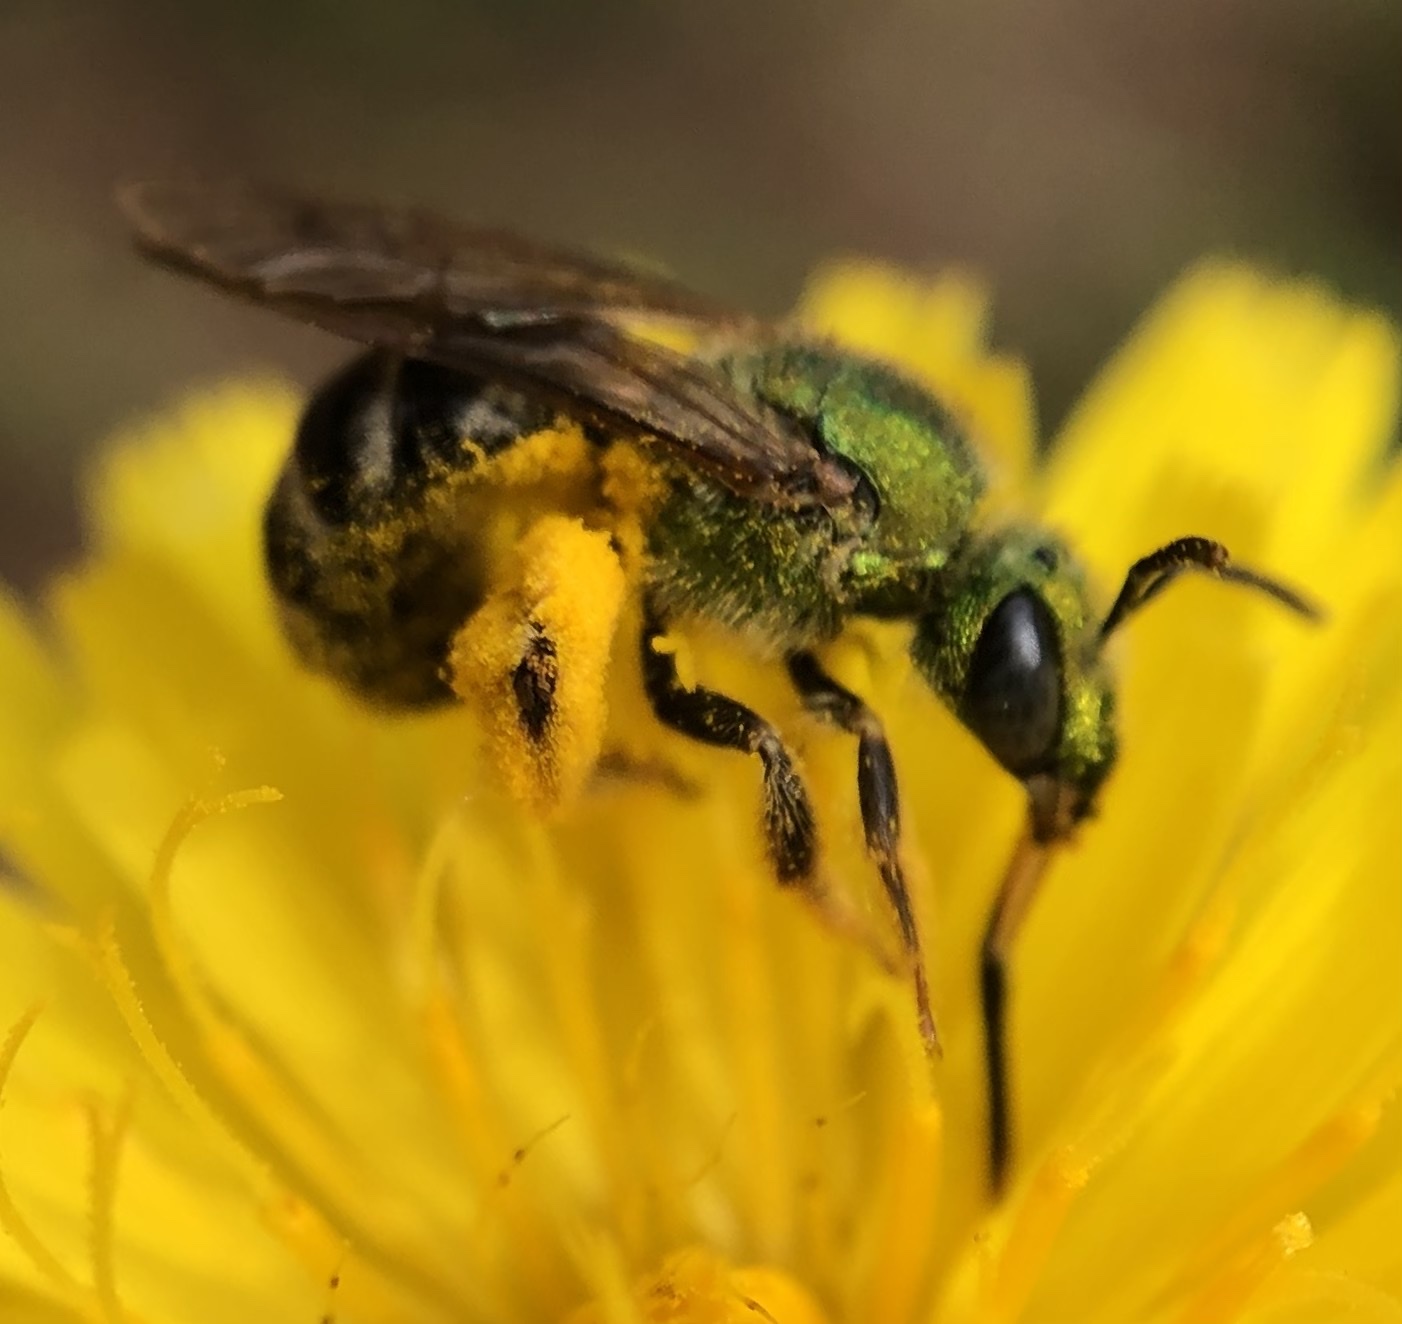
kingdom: Animalia
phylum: Arthropoda
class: Insecta
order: Hymenoptera
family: Halictidae
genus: Agapostemon
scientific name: Agapostemon virescens
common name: Bicolored striped sweat bee
